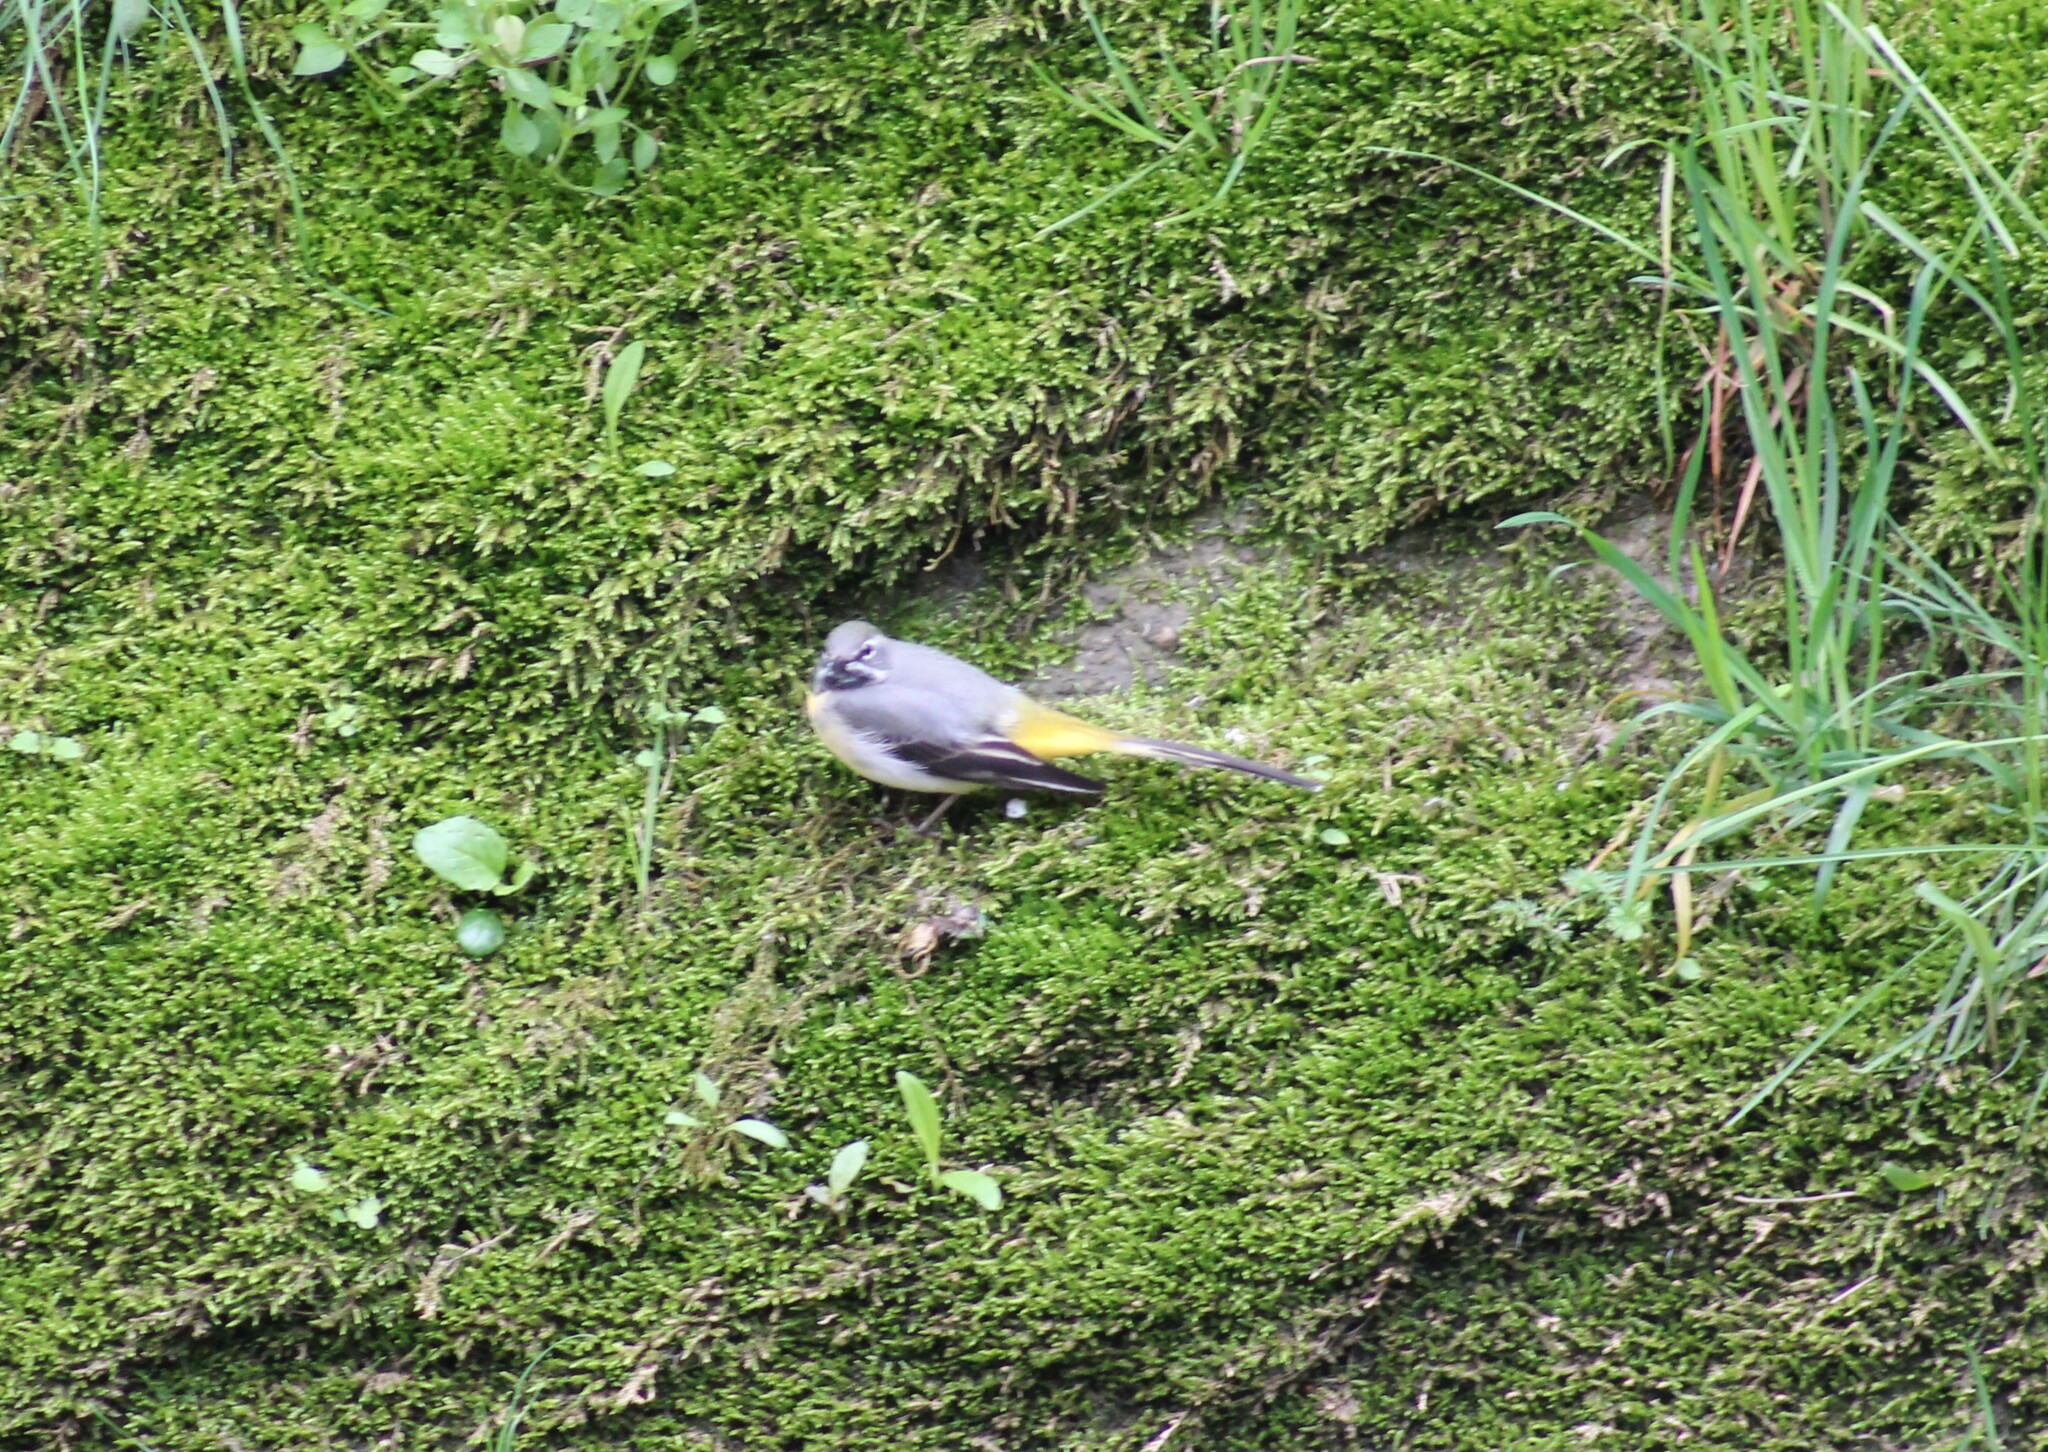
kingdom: Animalia
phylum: Chordata
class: Aves
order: Passeriformes
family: Motacillidae
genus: Motacilla
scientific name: Motacilla cinerea
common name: Grey wagtail
